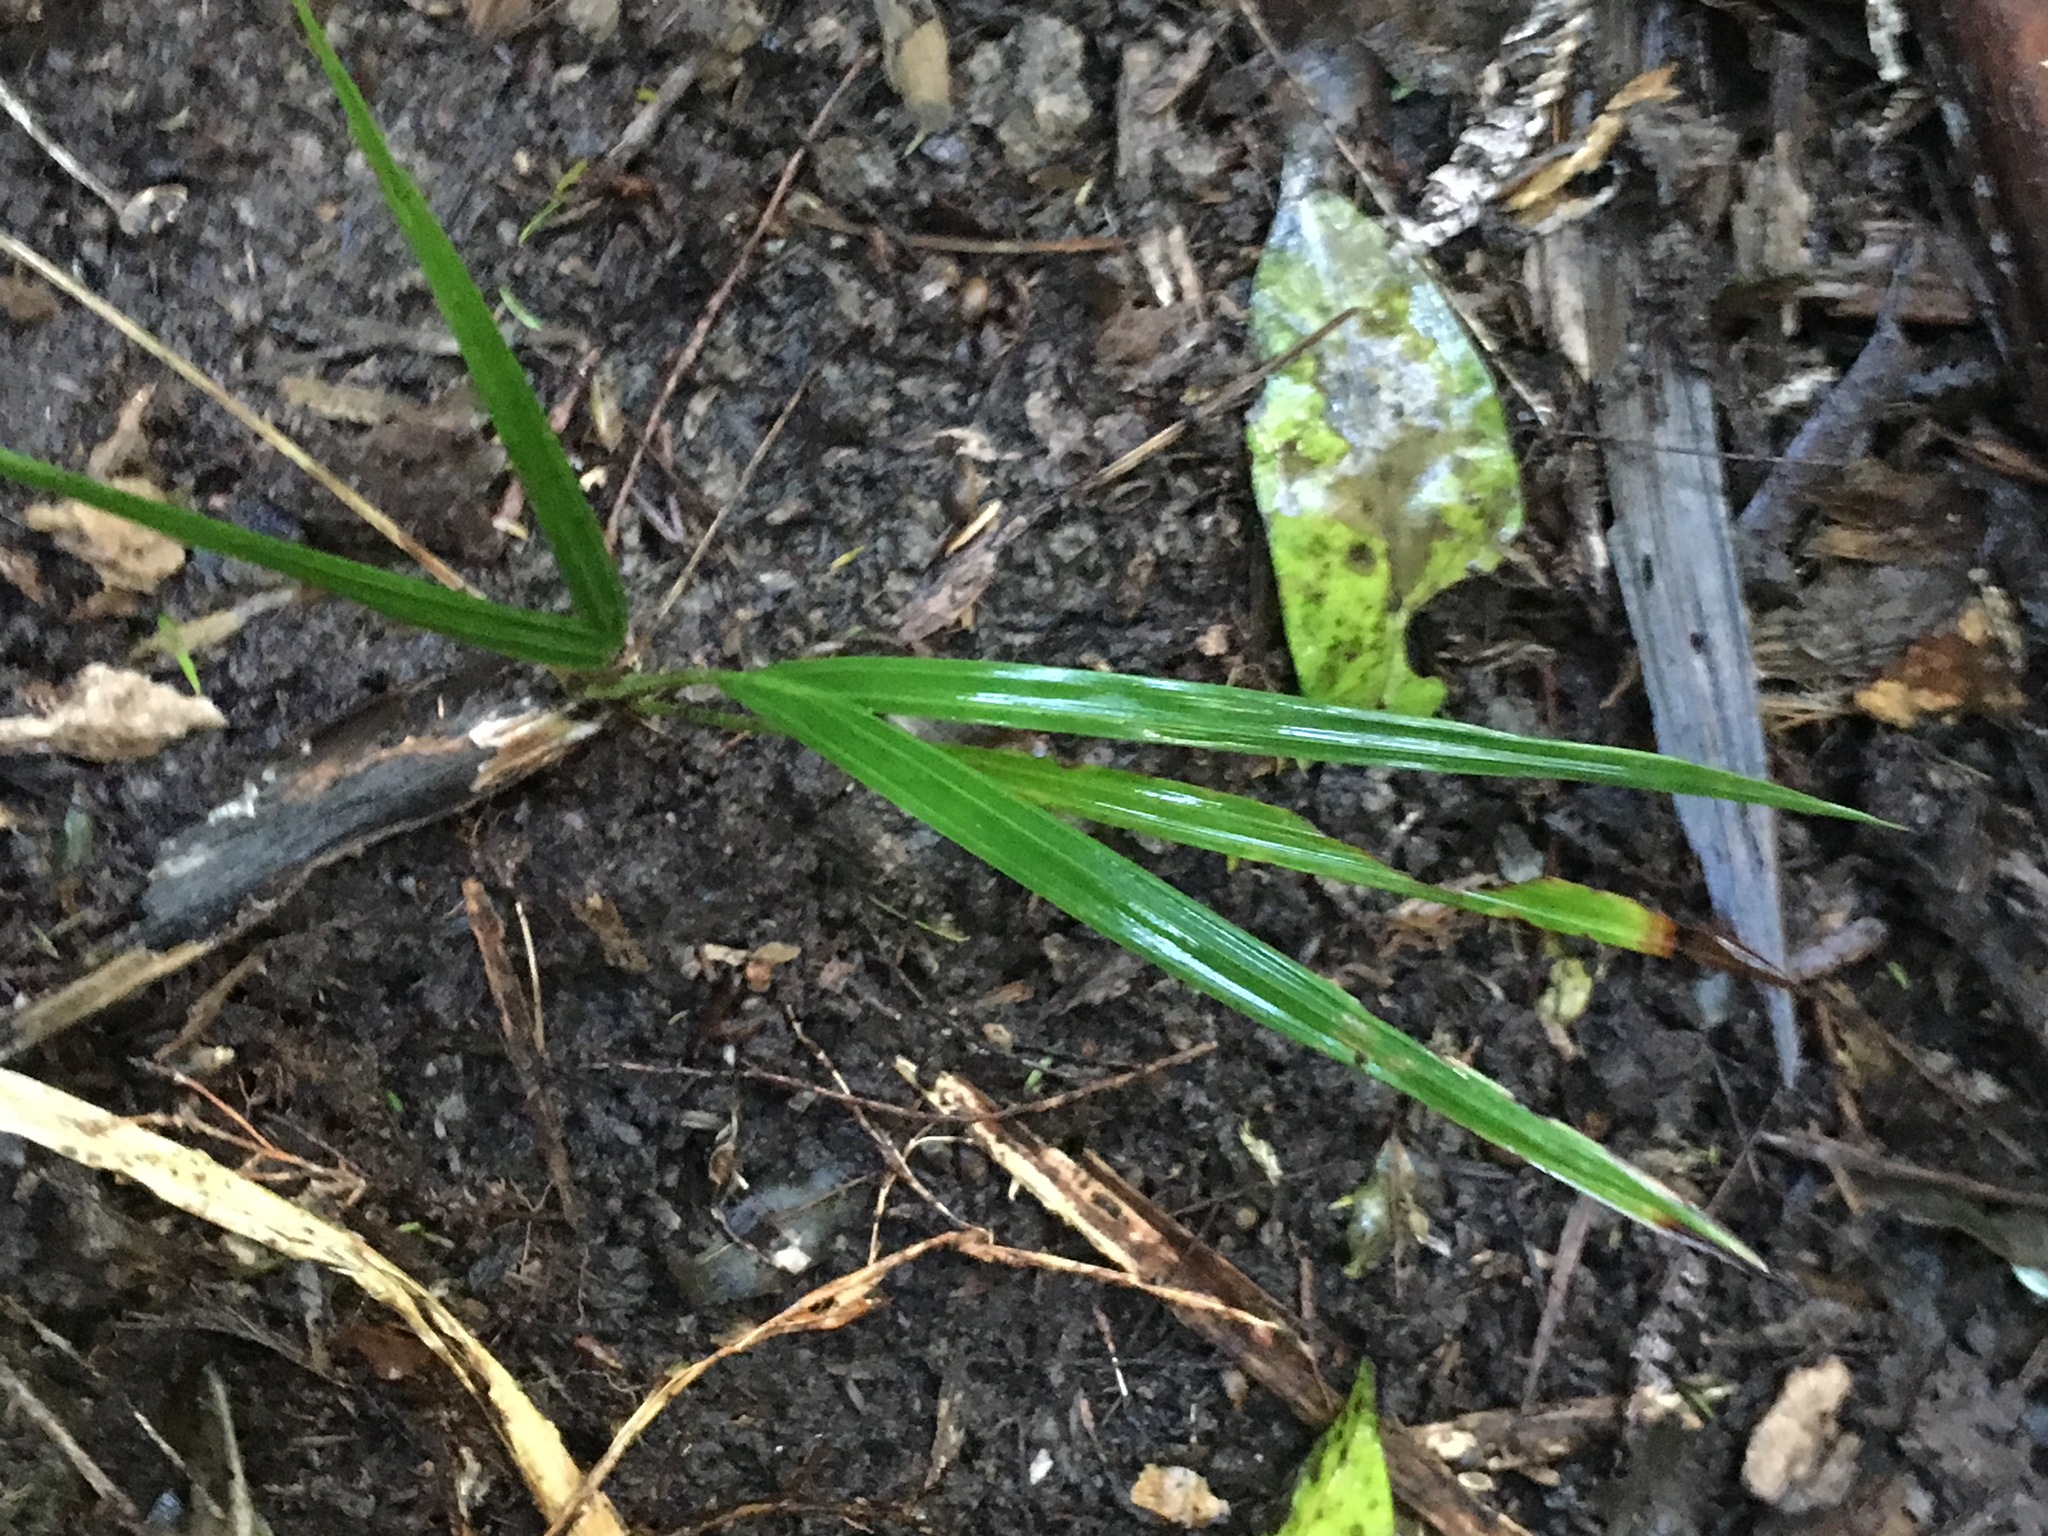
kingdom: Plantae
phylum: Tracheophyta
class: Liliopsida
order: Arecales
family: Arecaceae
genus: Rhopalostylis
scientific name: Rhopalostylis sapida
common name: Feather-duster palm
